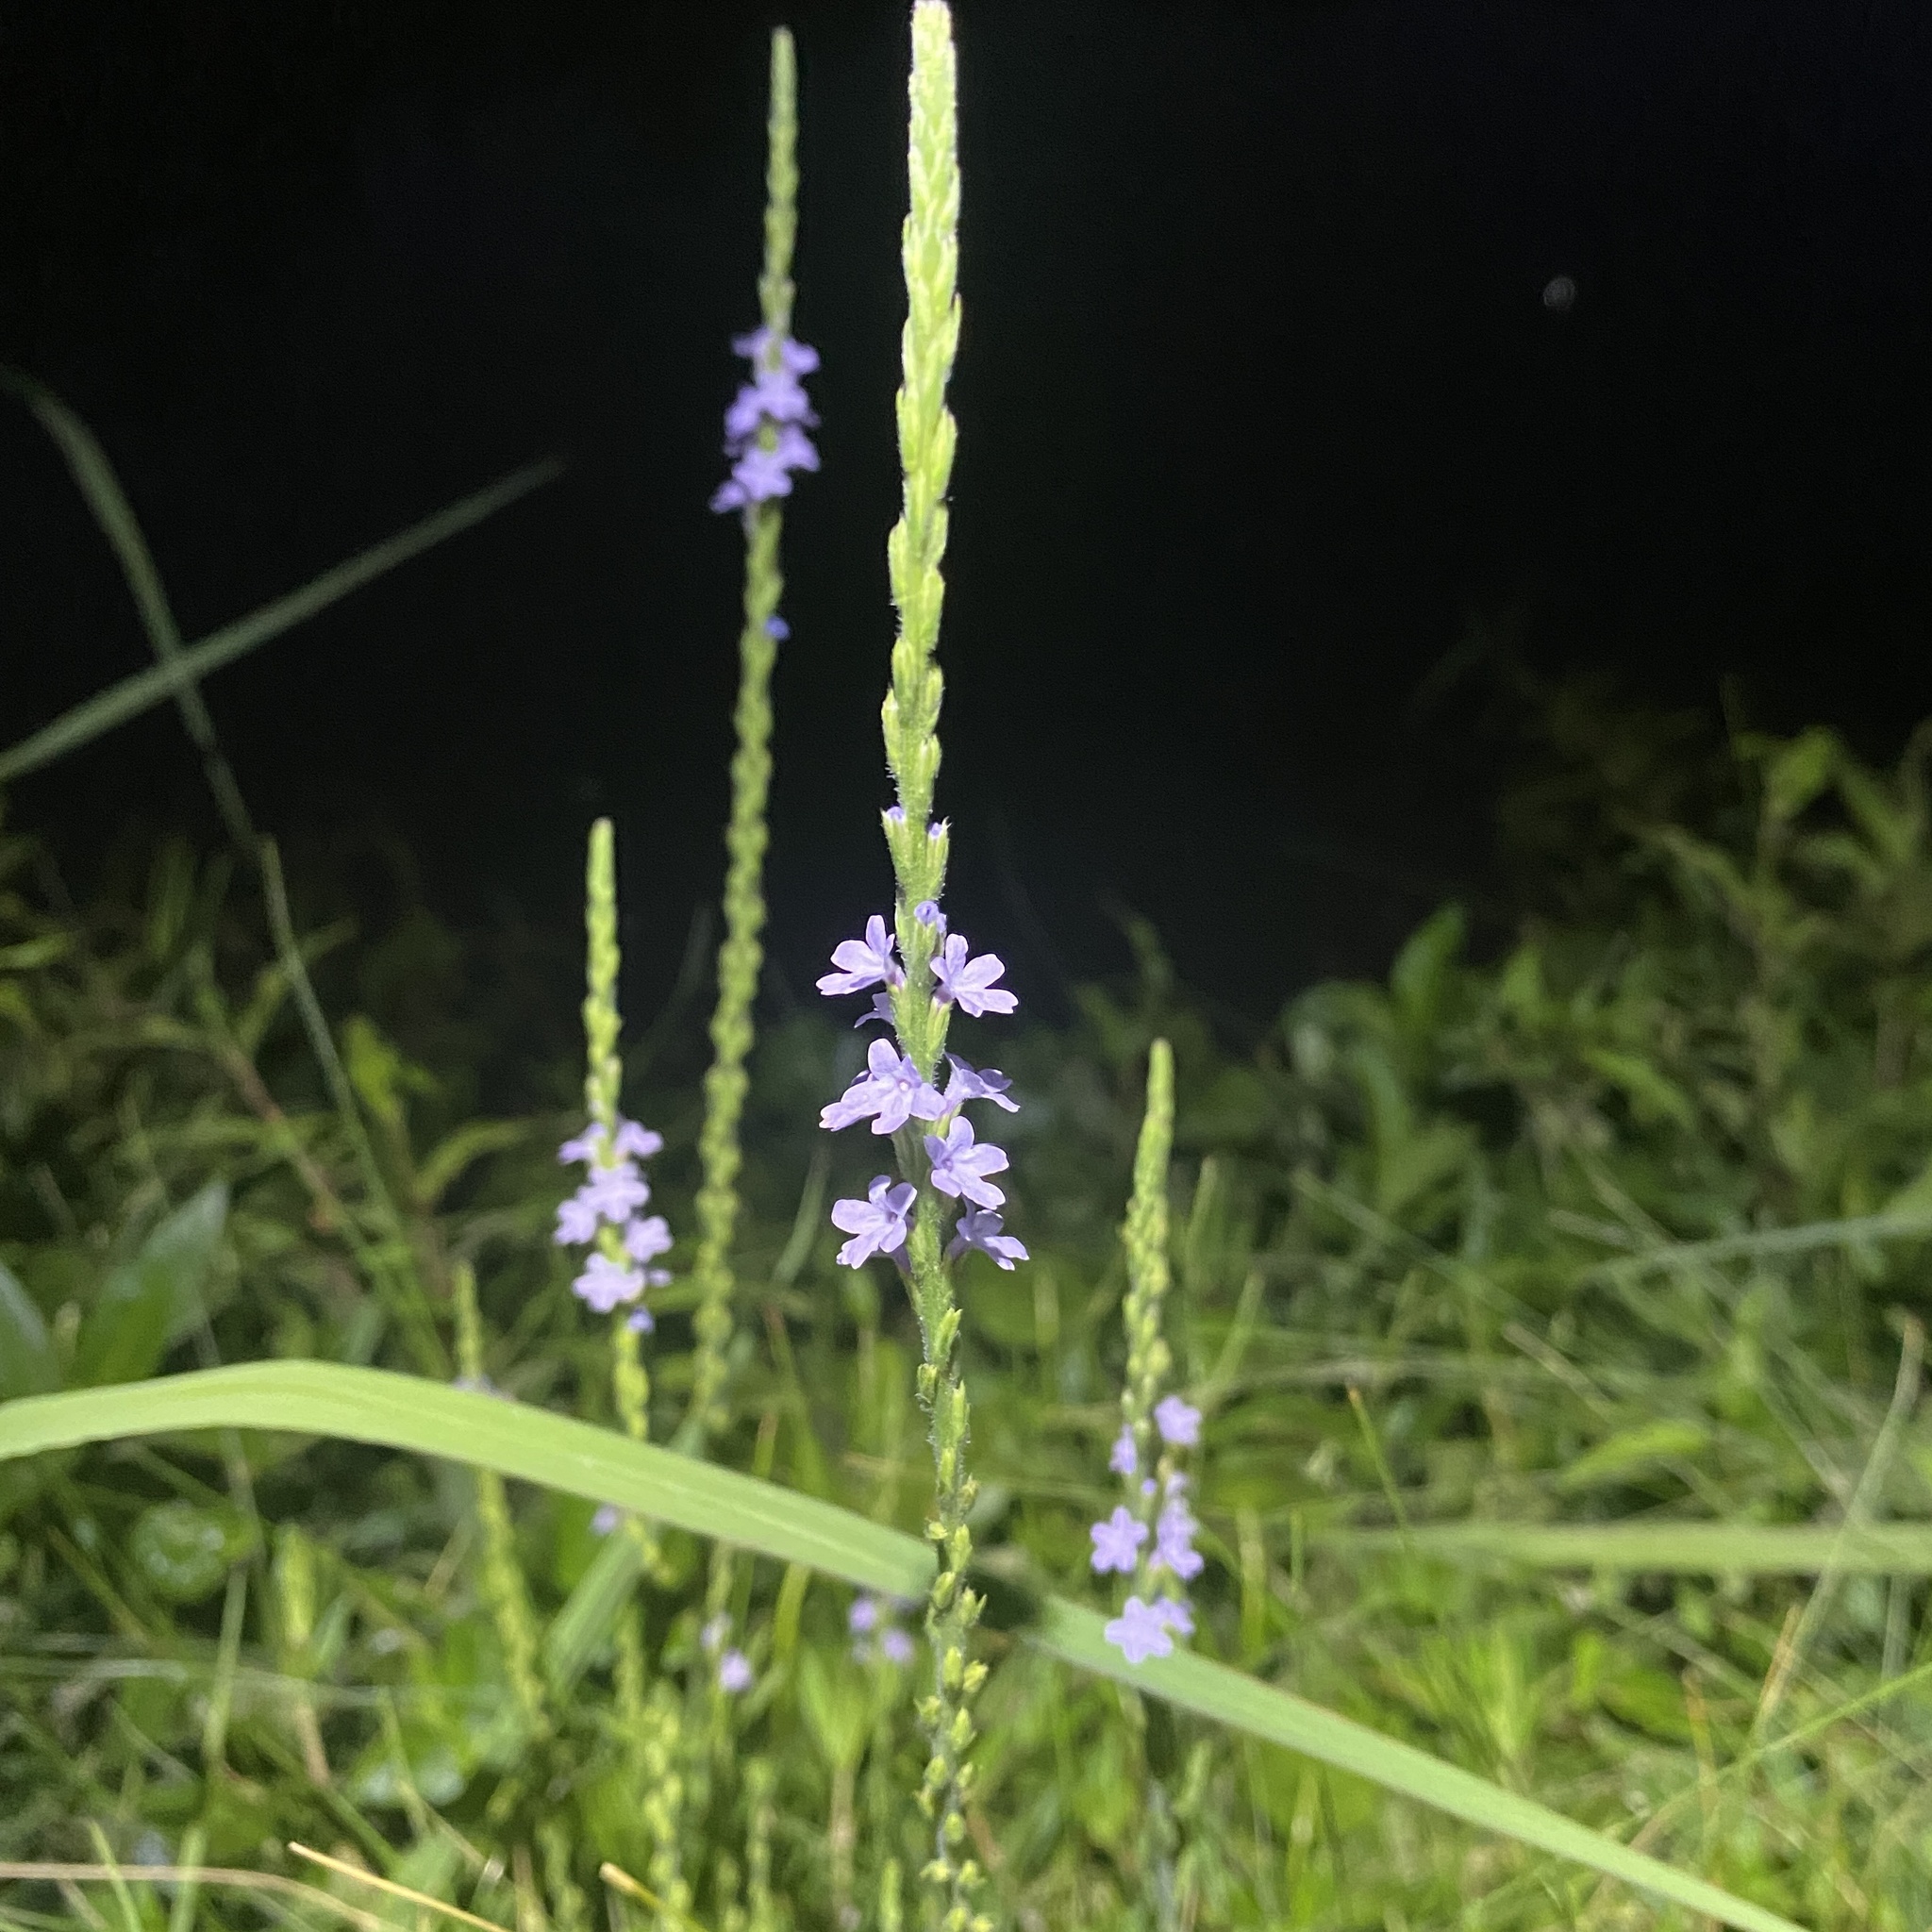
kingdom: Plantae
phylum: Tracheophyta
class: Magnoliopsida
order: Lamiales
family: Verbenaceae
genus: Verbena
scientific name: Verbena halei
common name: Texas vervain
